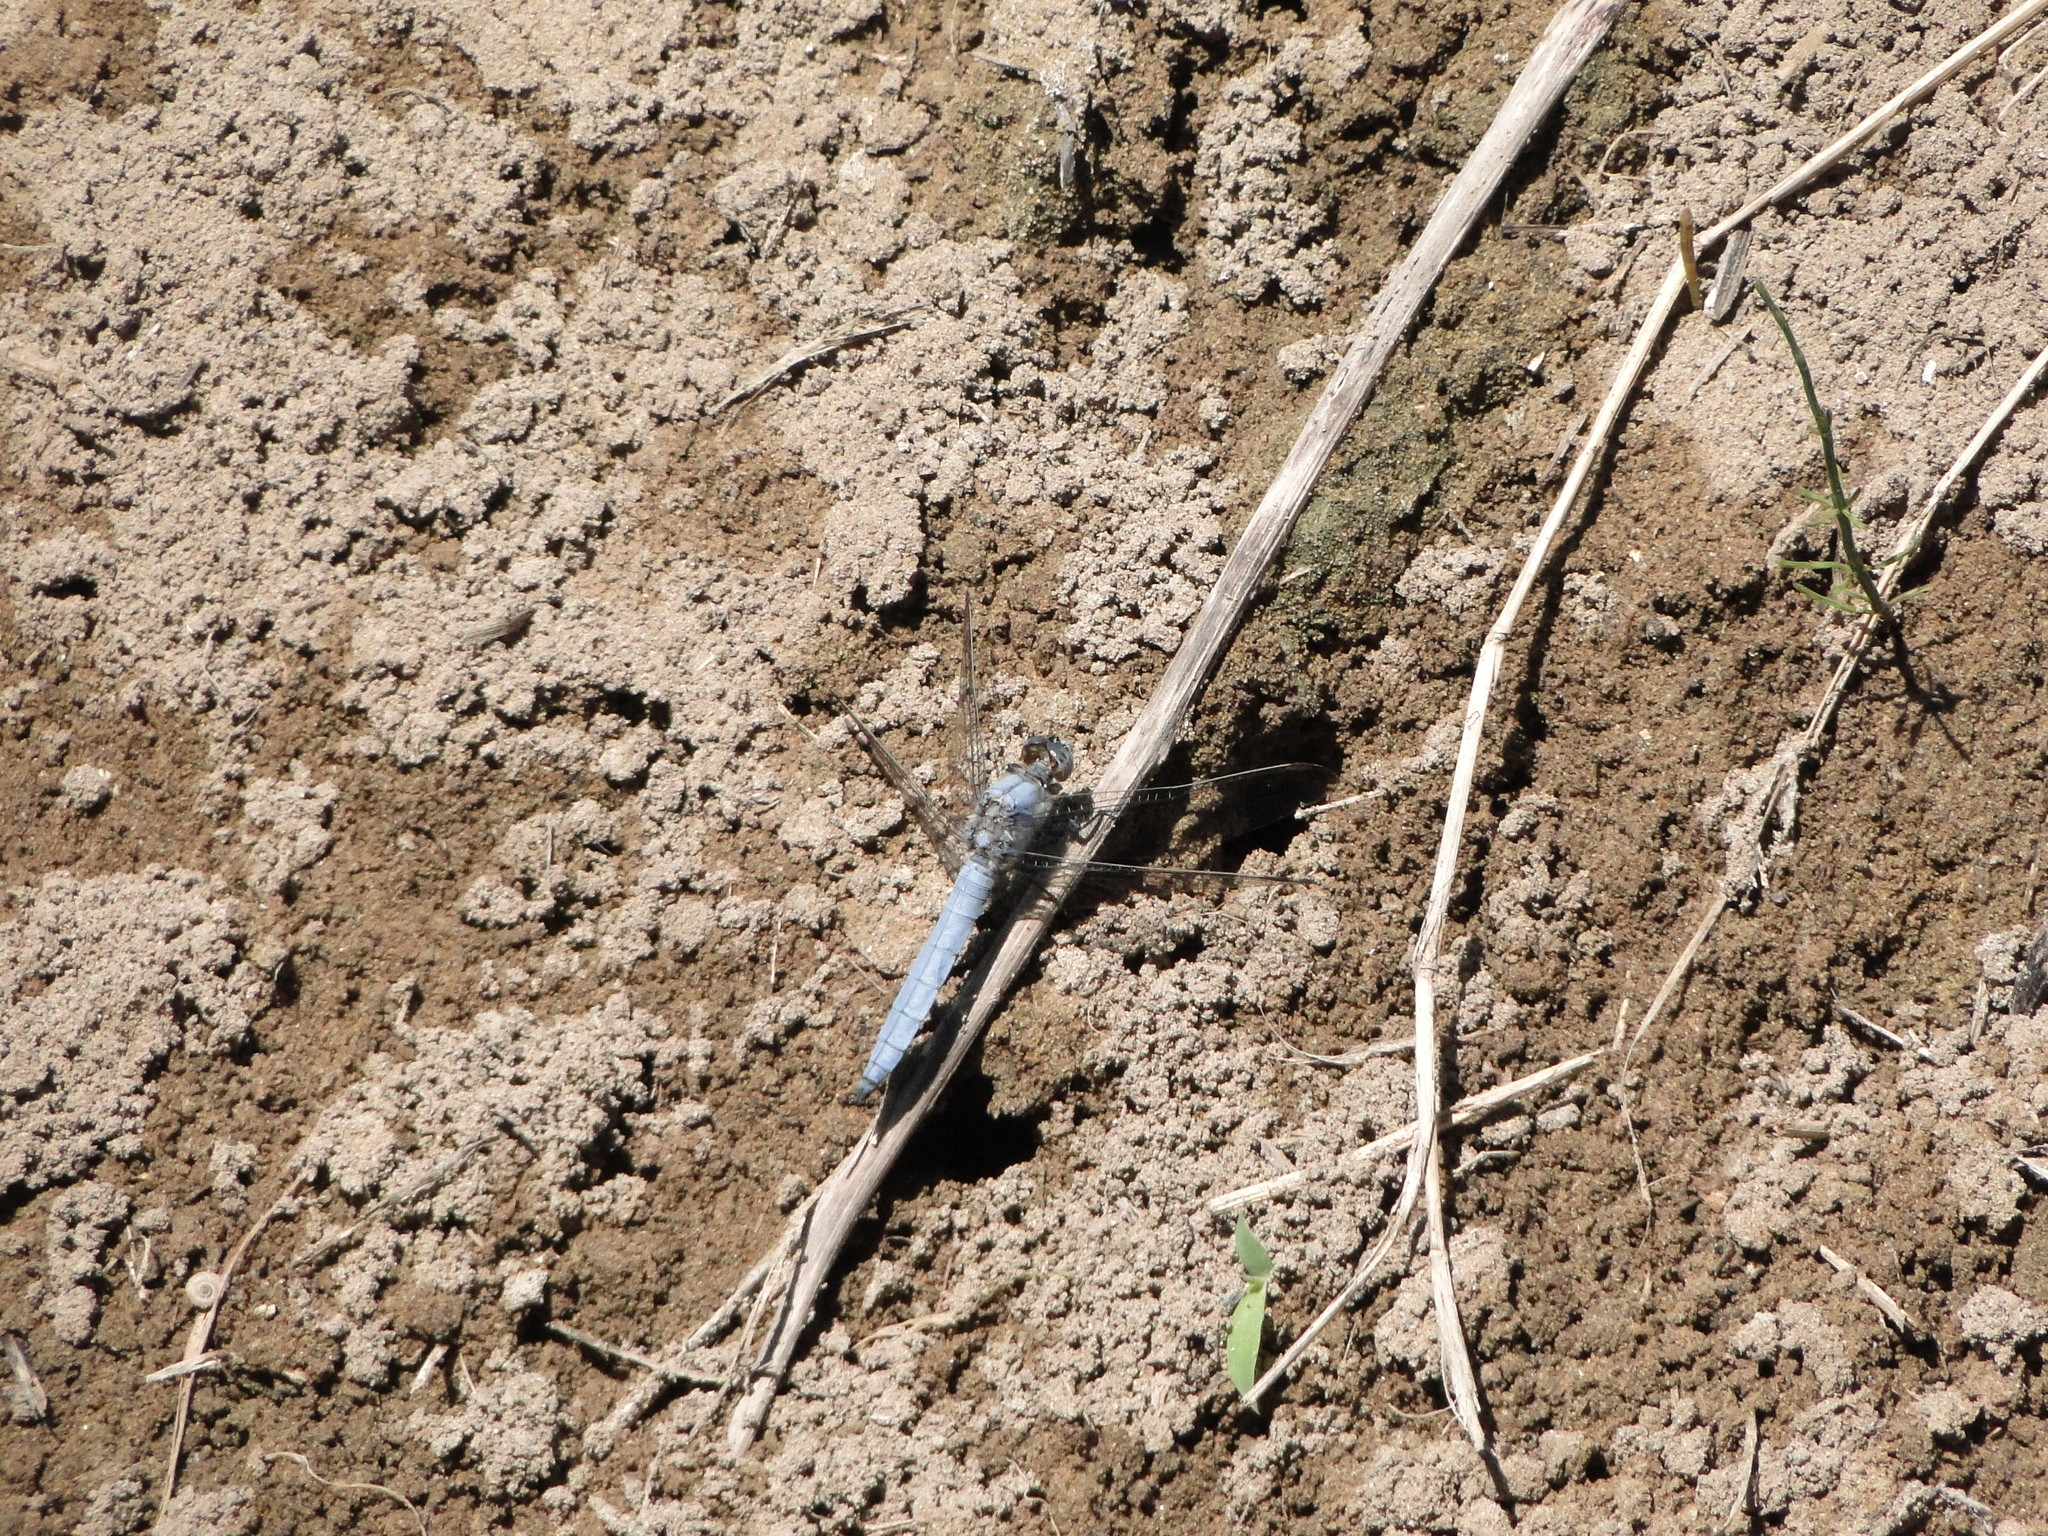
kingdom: Animalia
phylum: Arthropoda
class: Insecta
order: Odonata
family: Libellulidae
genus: Orthetrum
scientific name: Orthetrum brunneum
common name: Southern skimmer
